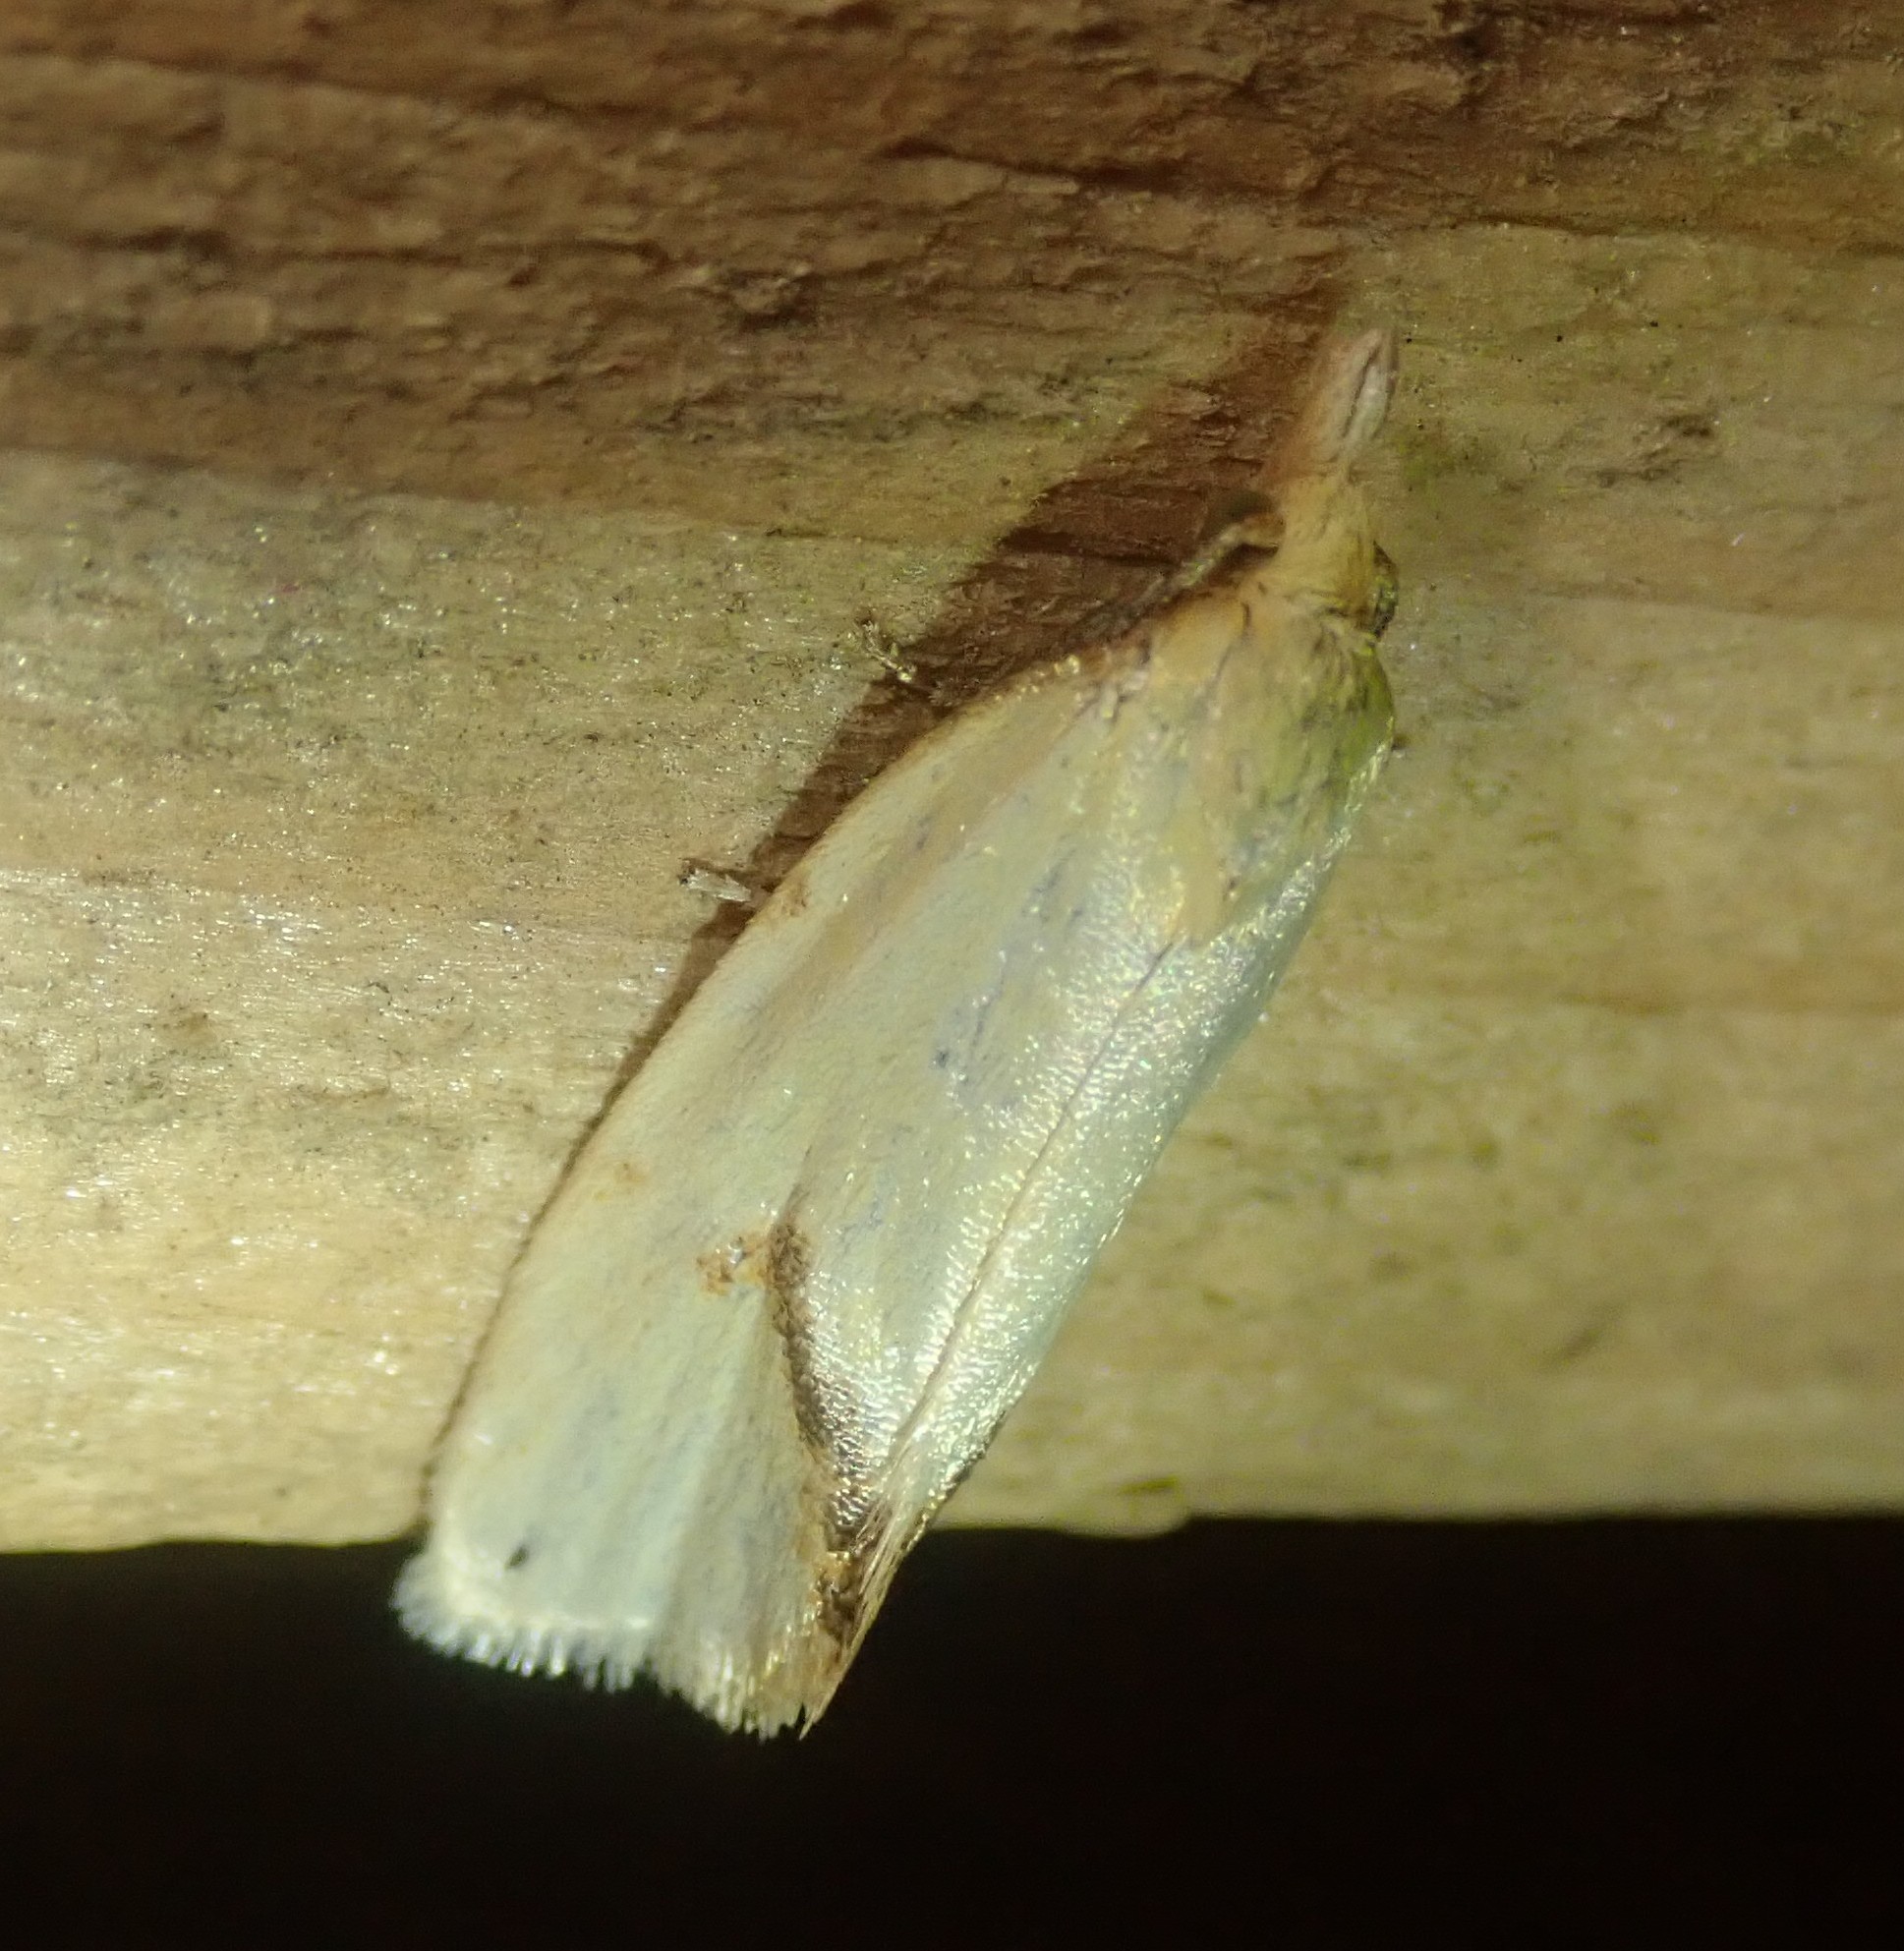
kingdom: Animalia
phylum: Arthropoda
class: Insecta
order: Lepidoptera
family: Tortricidae
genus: Agapeta
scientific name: Agapeta hamana
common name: Common yellow conch
